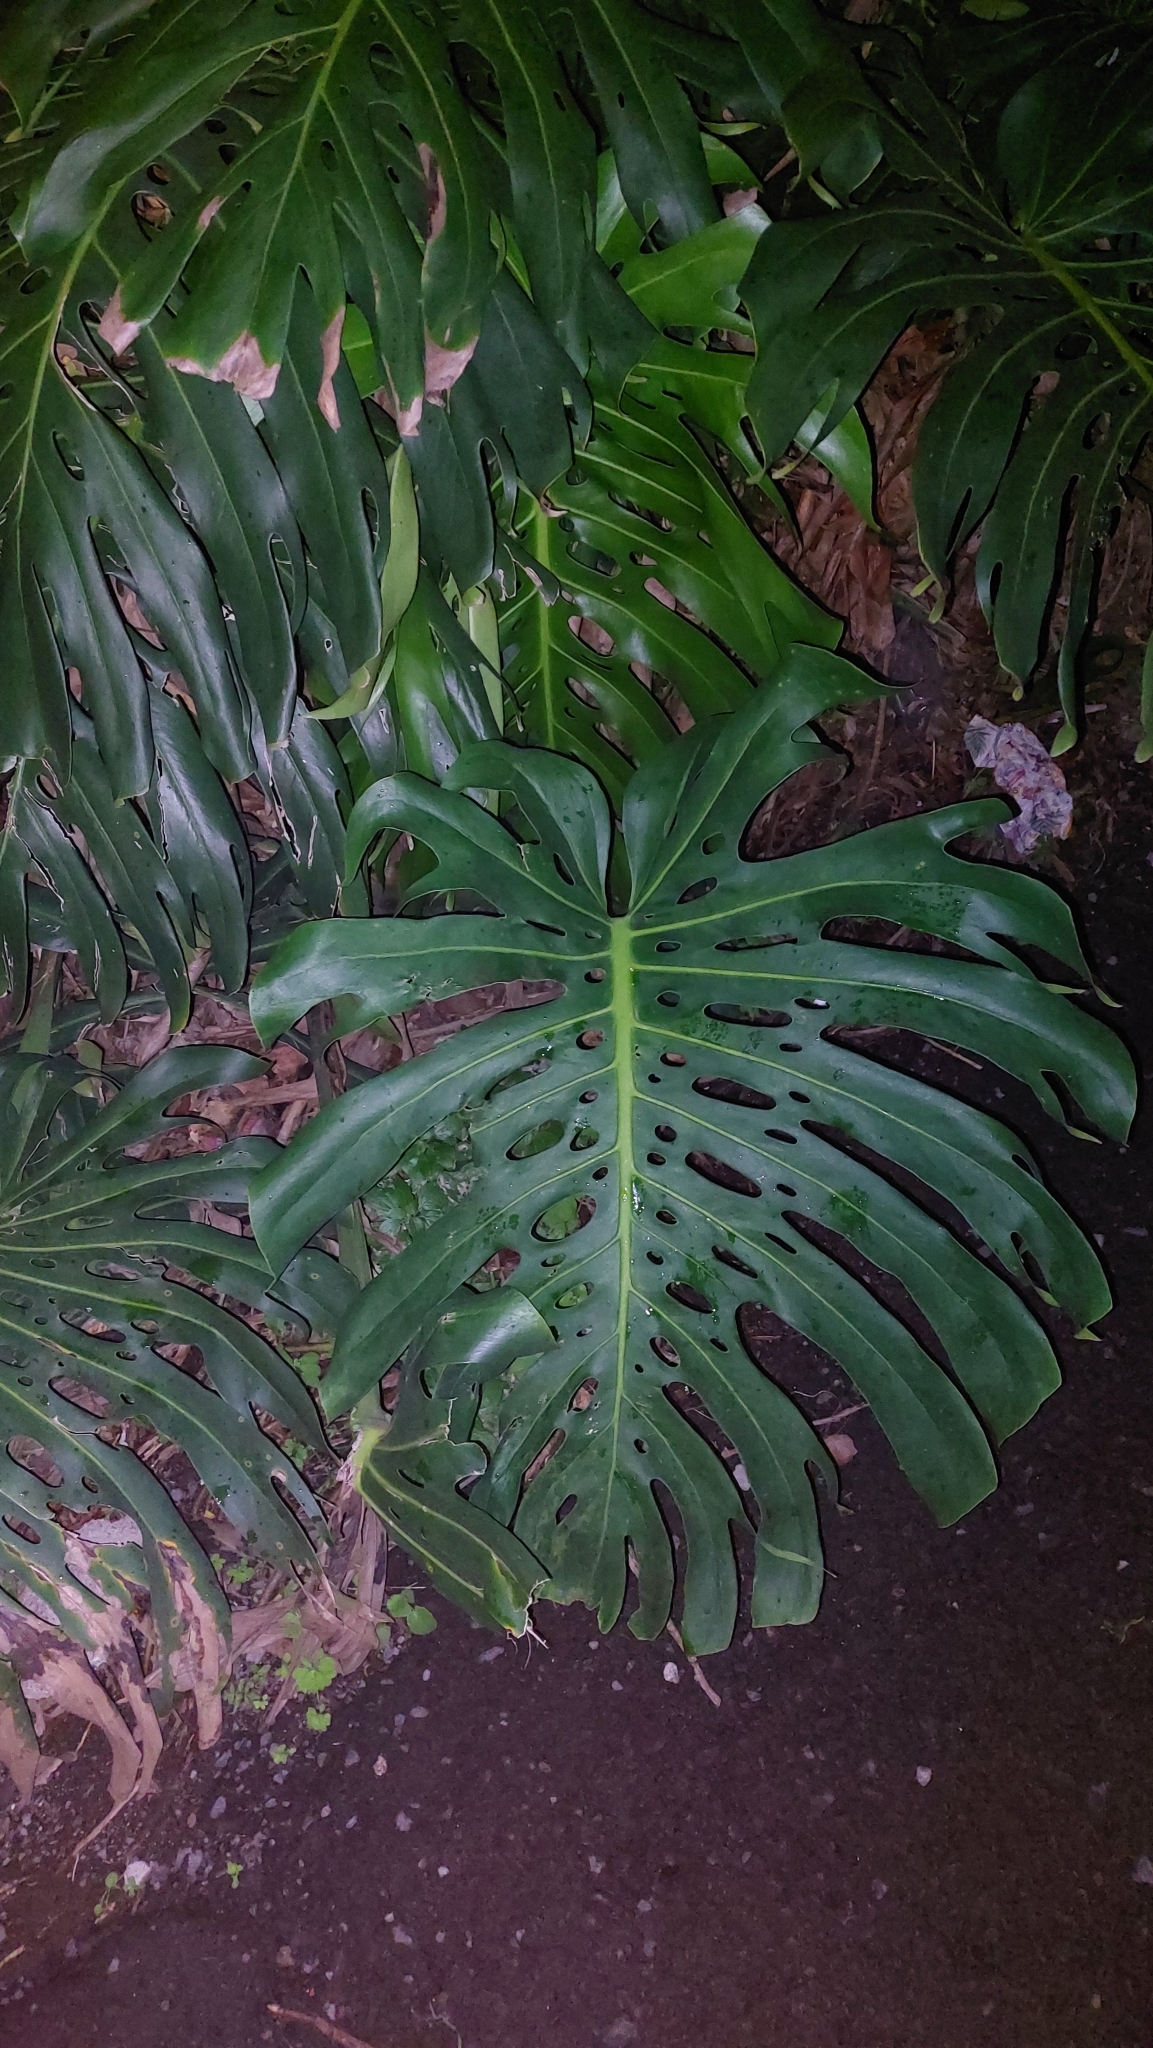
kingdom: Plantae
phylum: Tracheophyta
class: Liliopsida
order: Alismatales
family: Araceae
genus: Monstera
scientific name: Monstera deliciosa
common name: Cut-leaf-philodendron
